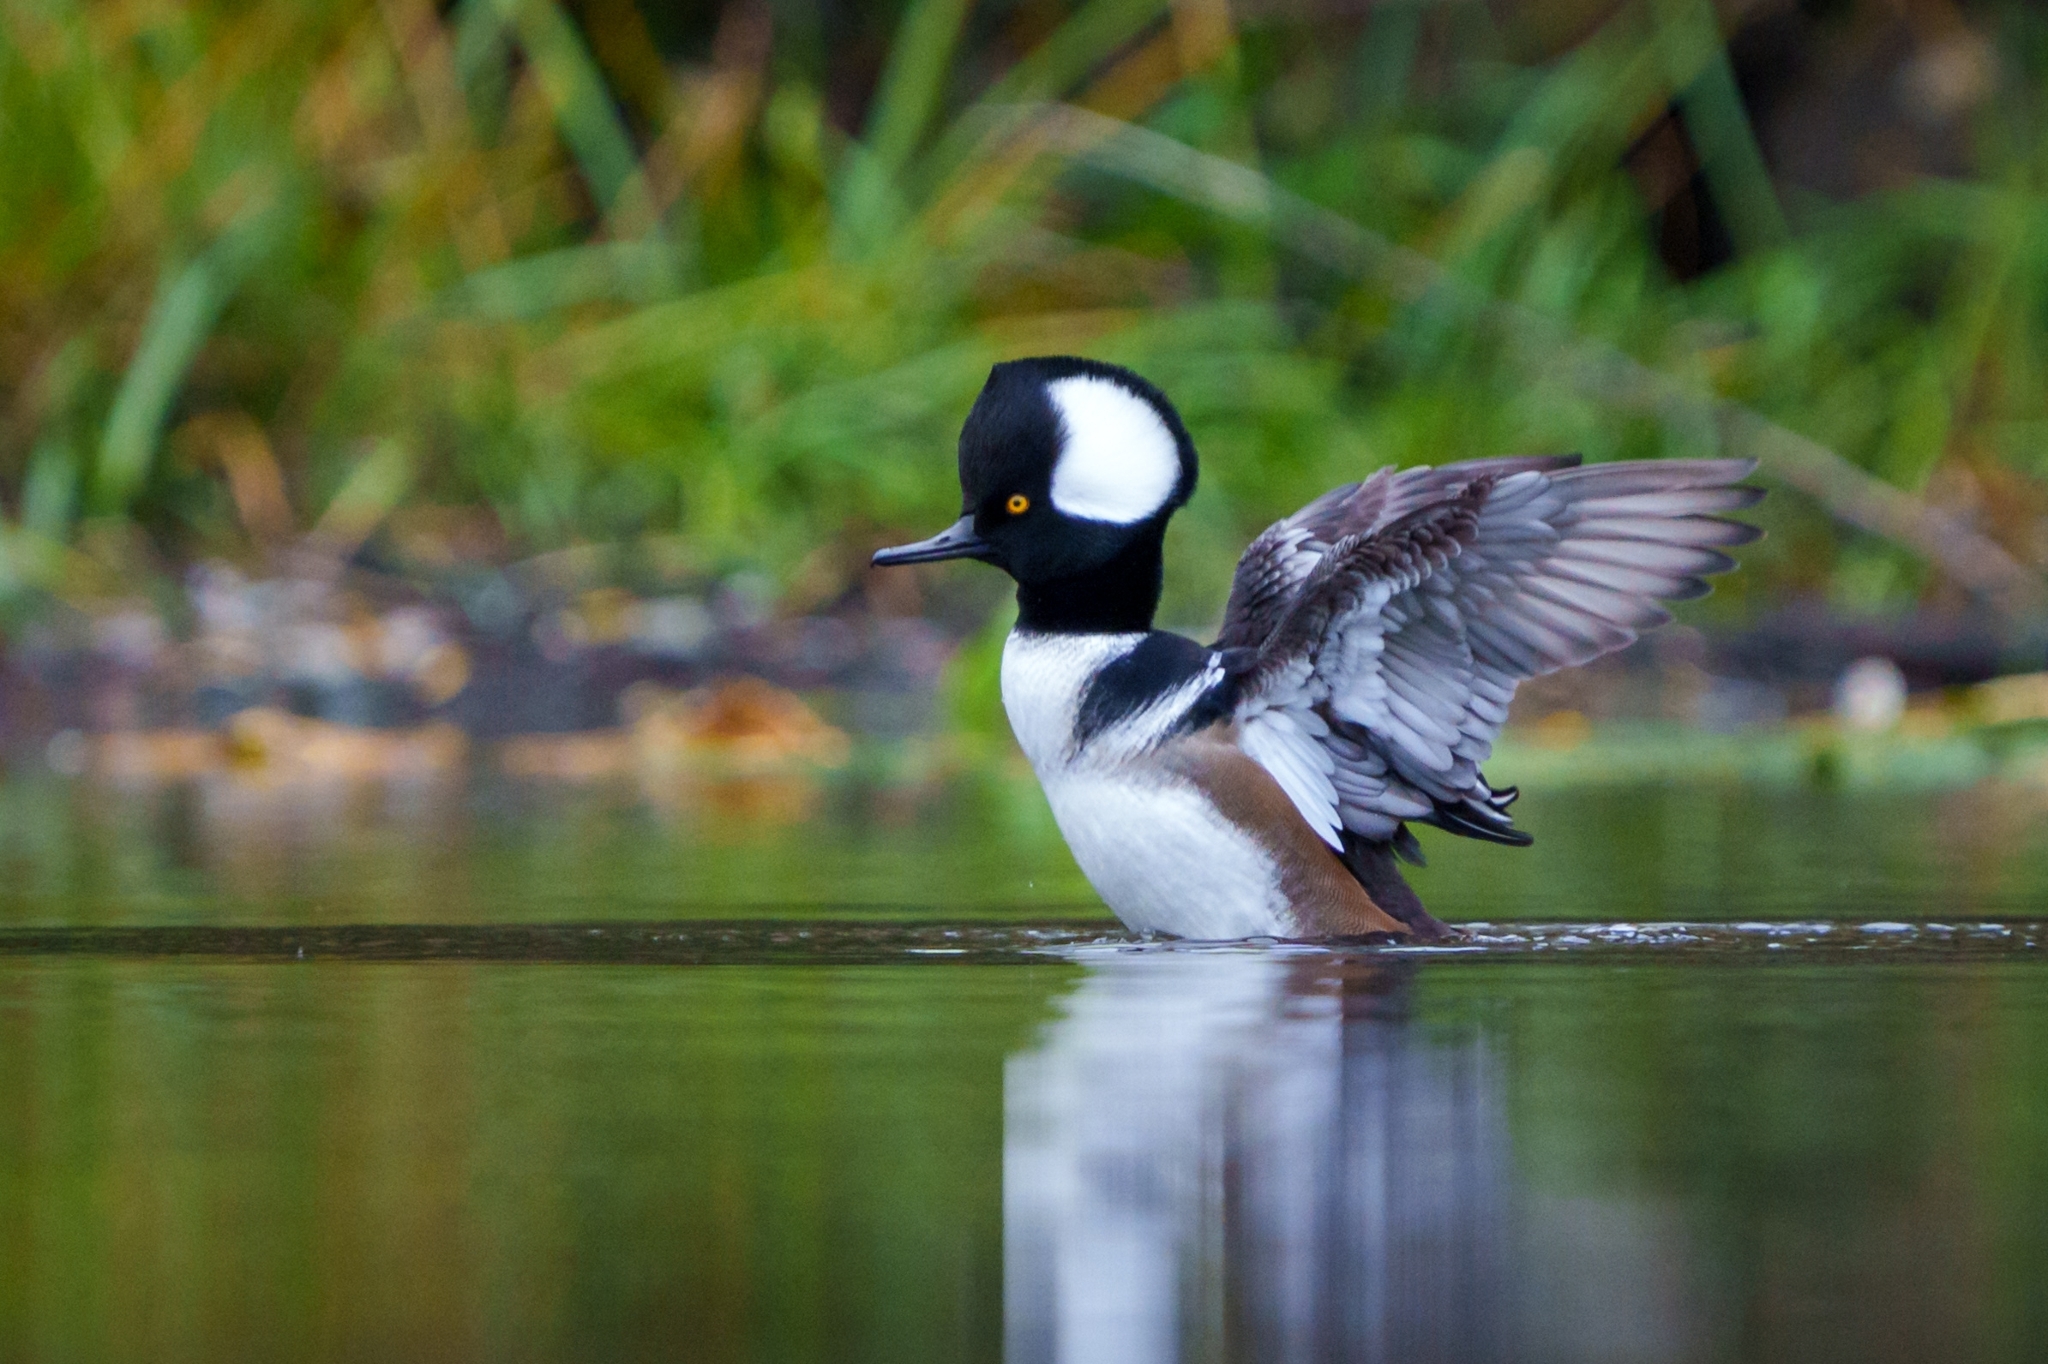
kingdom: Animalia
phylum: Chordata
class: Aves
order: Anseriformes
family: Anatidae
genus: Lophodytes
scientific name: Lophodytes cucullatus
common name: Hooded merganser
